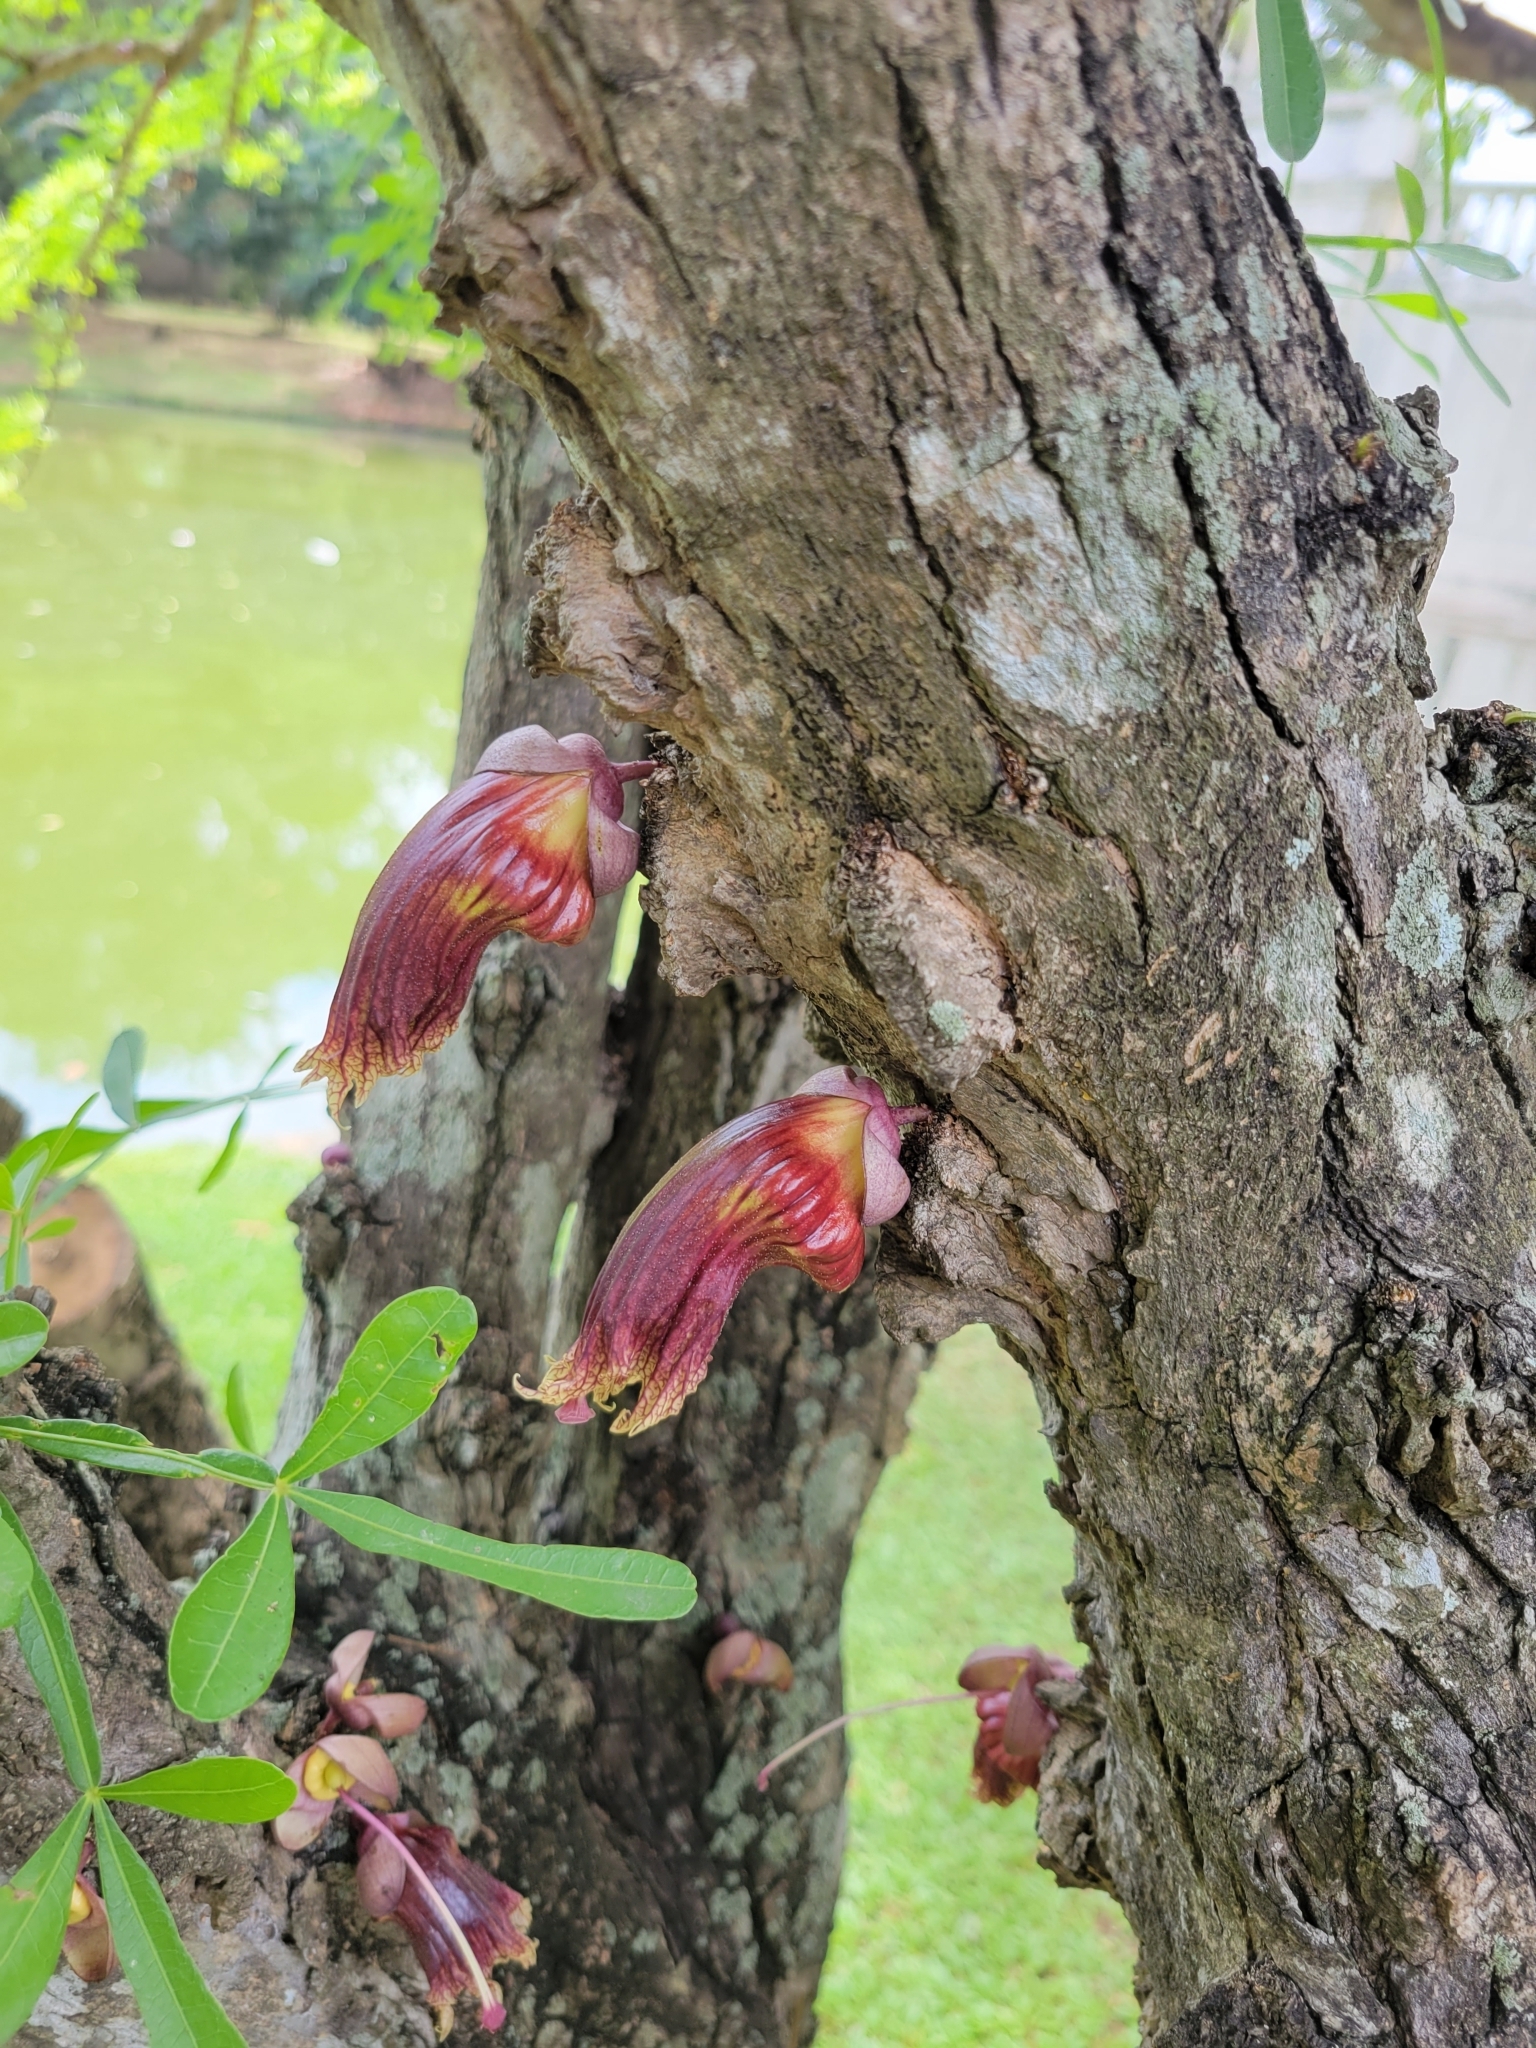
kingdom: Plantae
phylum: Tracheophyta
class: Magnoliopsida
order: Lamiales
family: Bignoniaceae
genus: Crescentia
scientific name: Crescentia cujete
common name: Calabash
